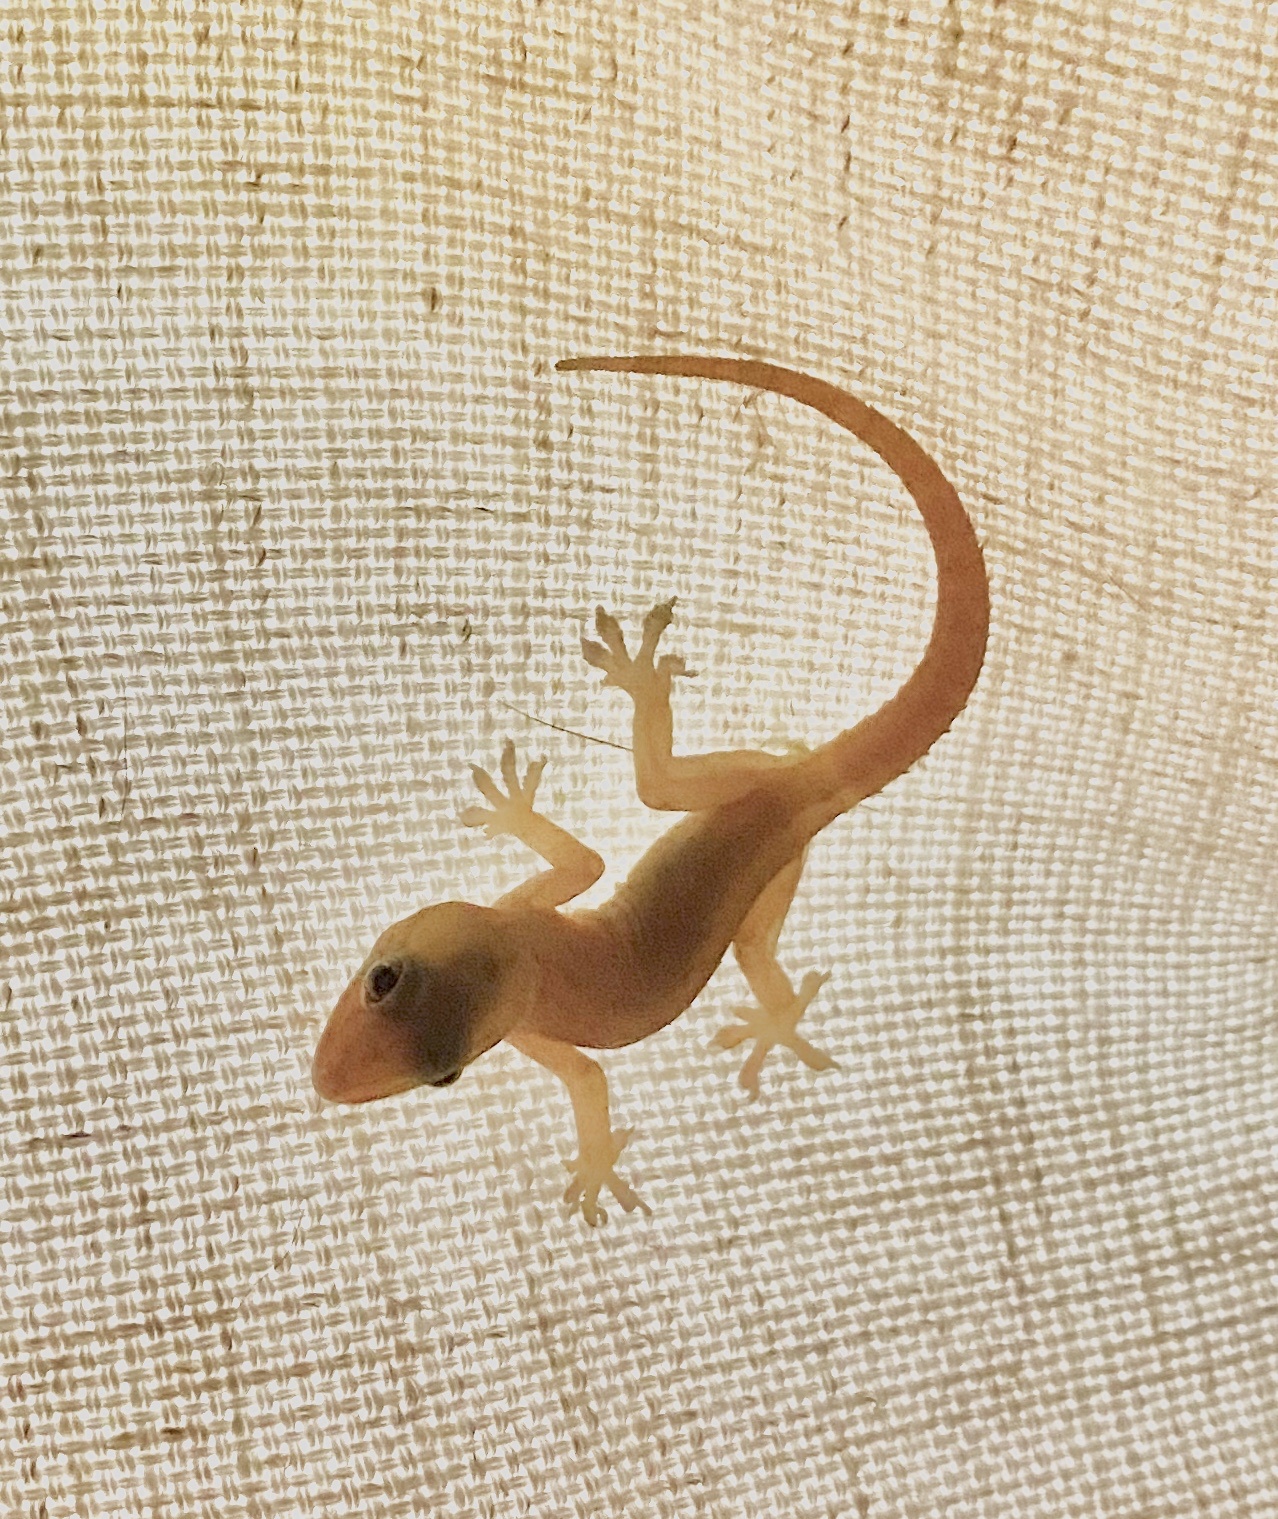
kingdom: Animalia
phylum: Chordata
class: Squamata
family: Gekkonidae
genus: Hemidactylus
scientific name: Hemidactylus frenatus
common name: Common house gecko
